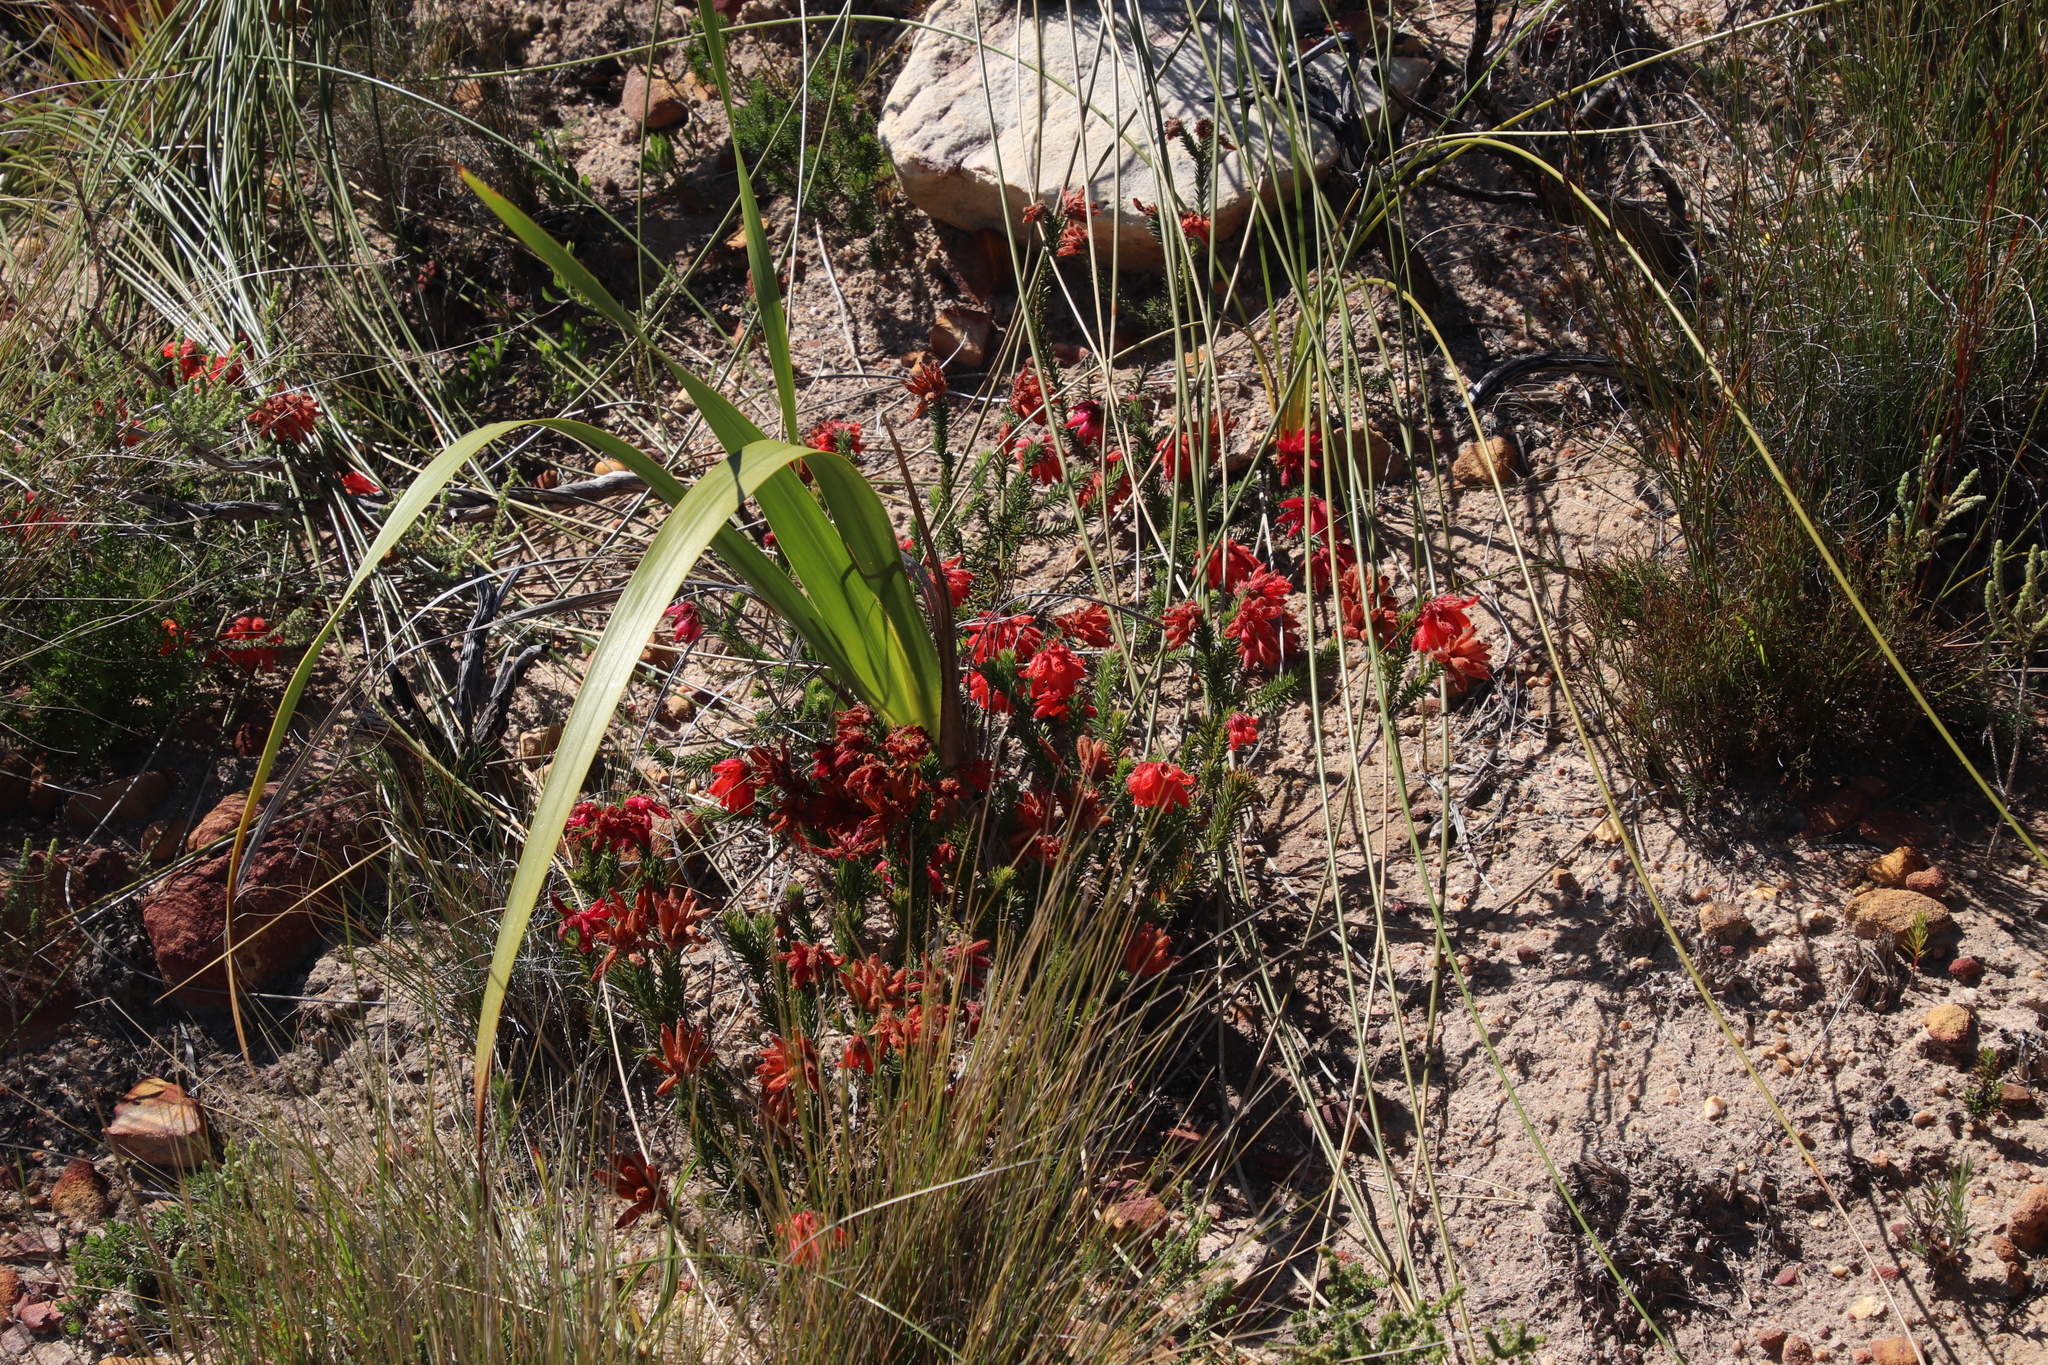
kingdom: Plantae
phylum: Tracheophyta
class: Magnoliopsida
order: Ericales
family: Ericaceae
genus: Erica
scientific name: Erica cerinthoides
